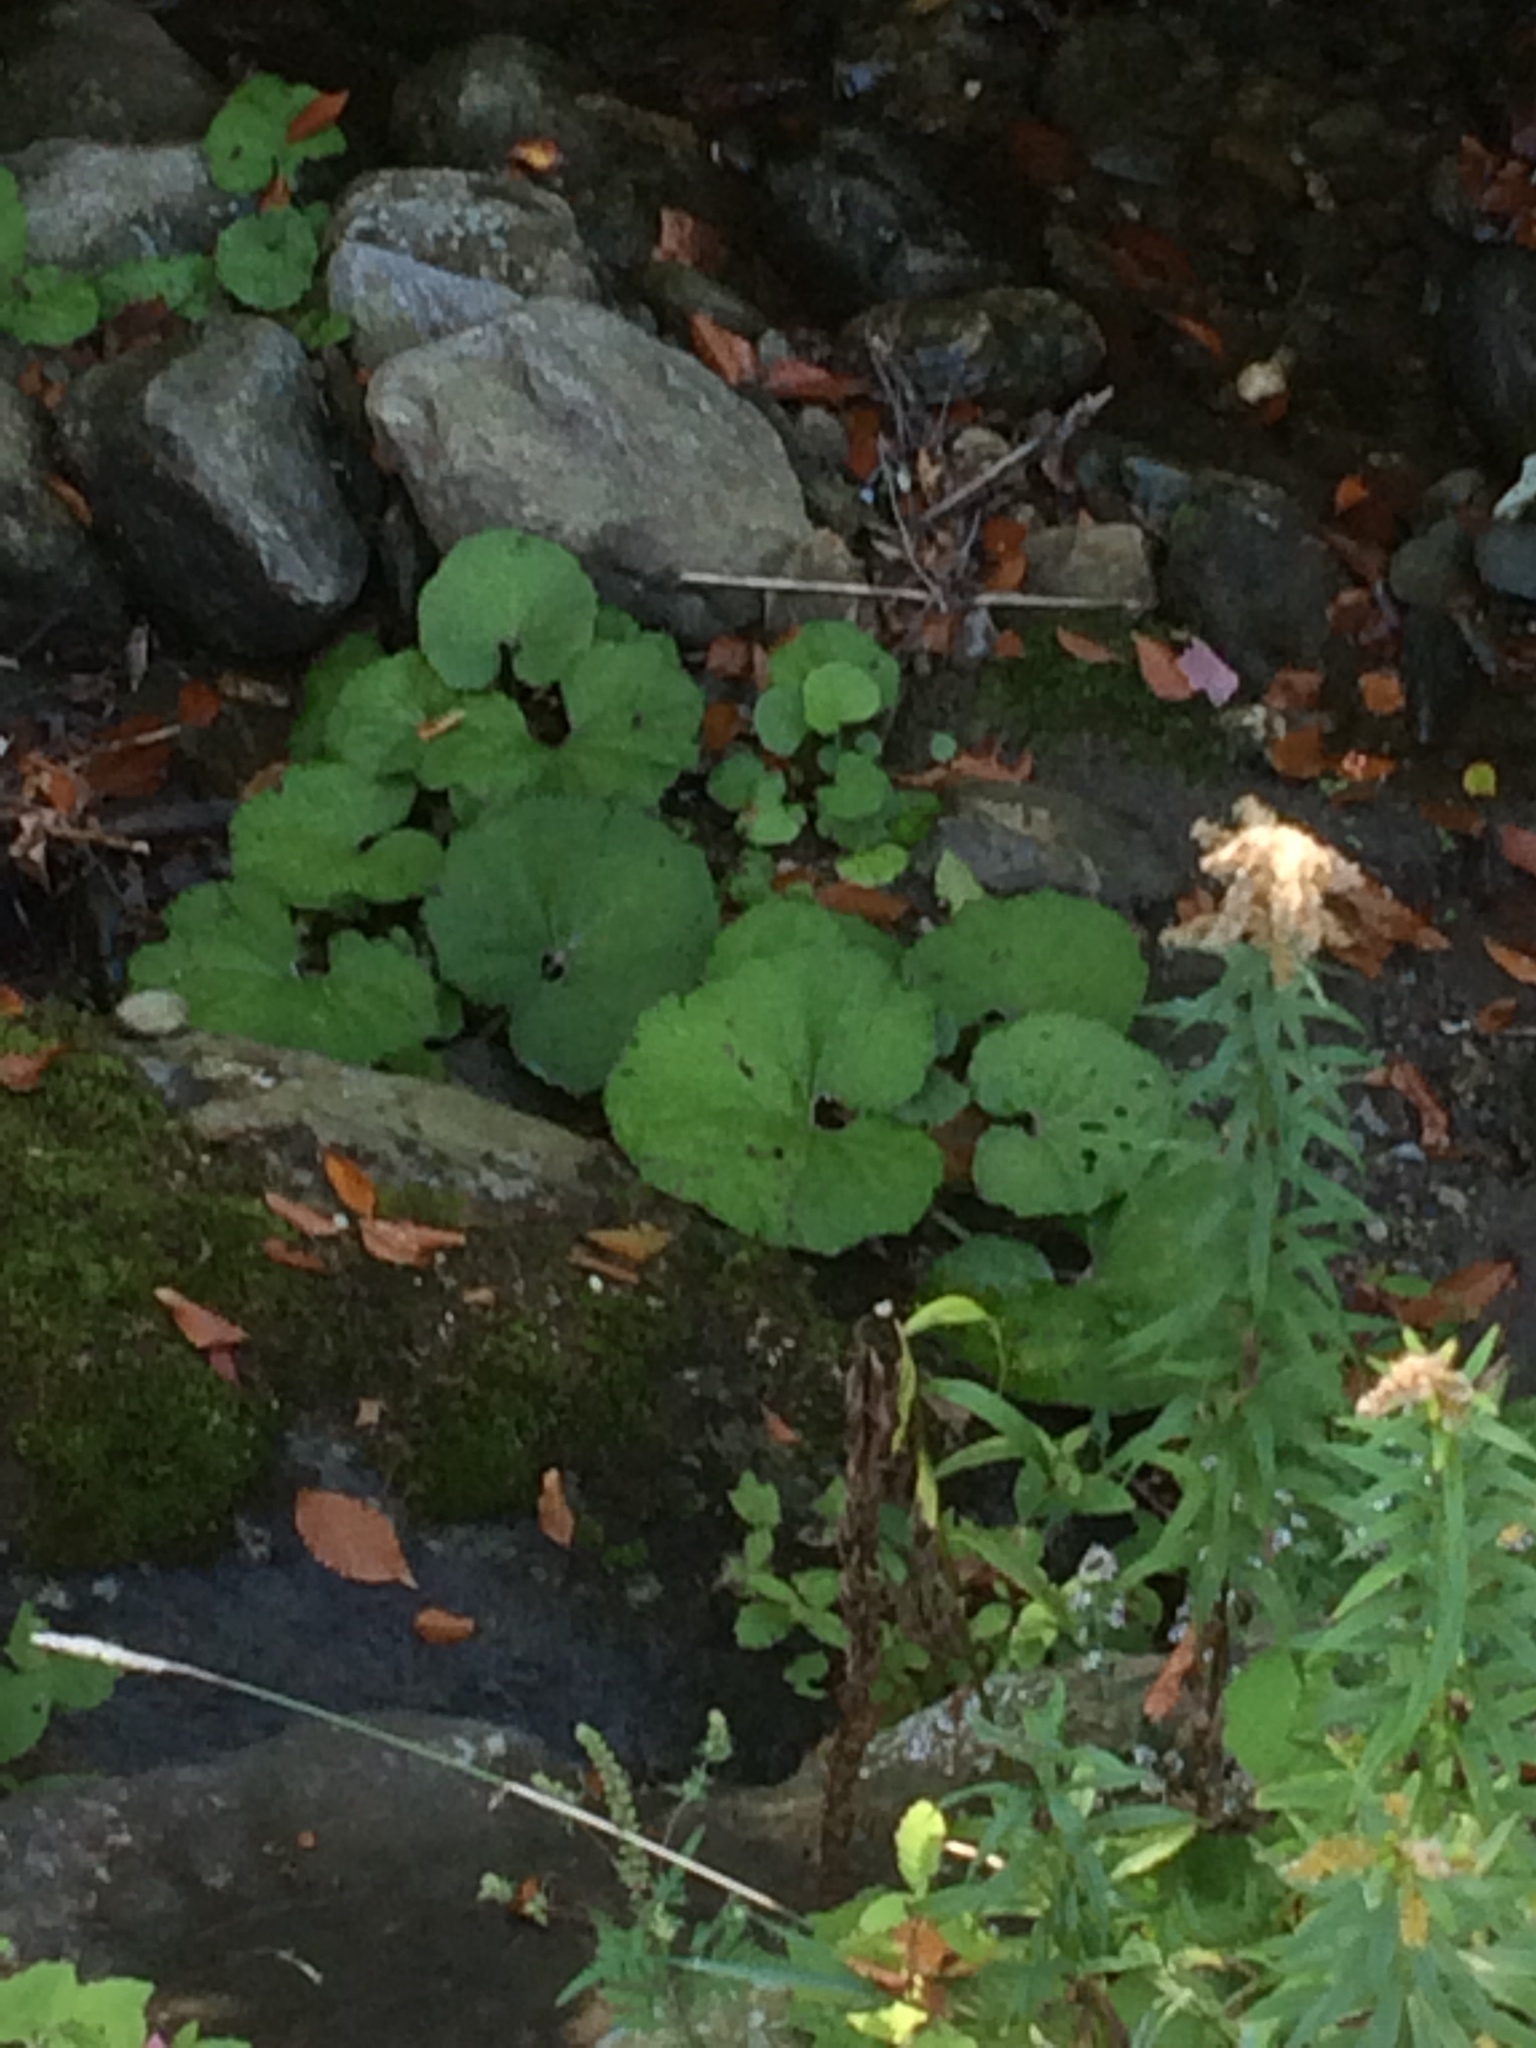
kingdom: Plantae
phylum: Tracheophyta
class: Magnoliopsida
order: Asterales
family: Asteraceae
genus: Tussilago
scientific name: Tussilago farfara
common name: Coltsfoot
